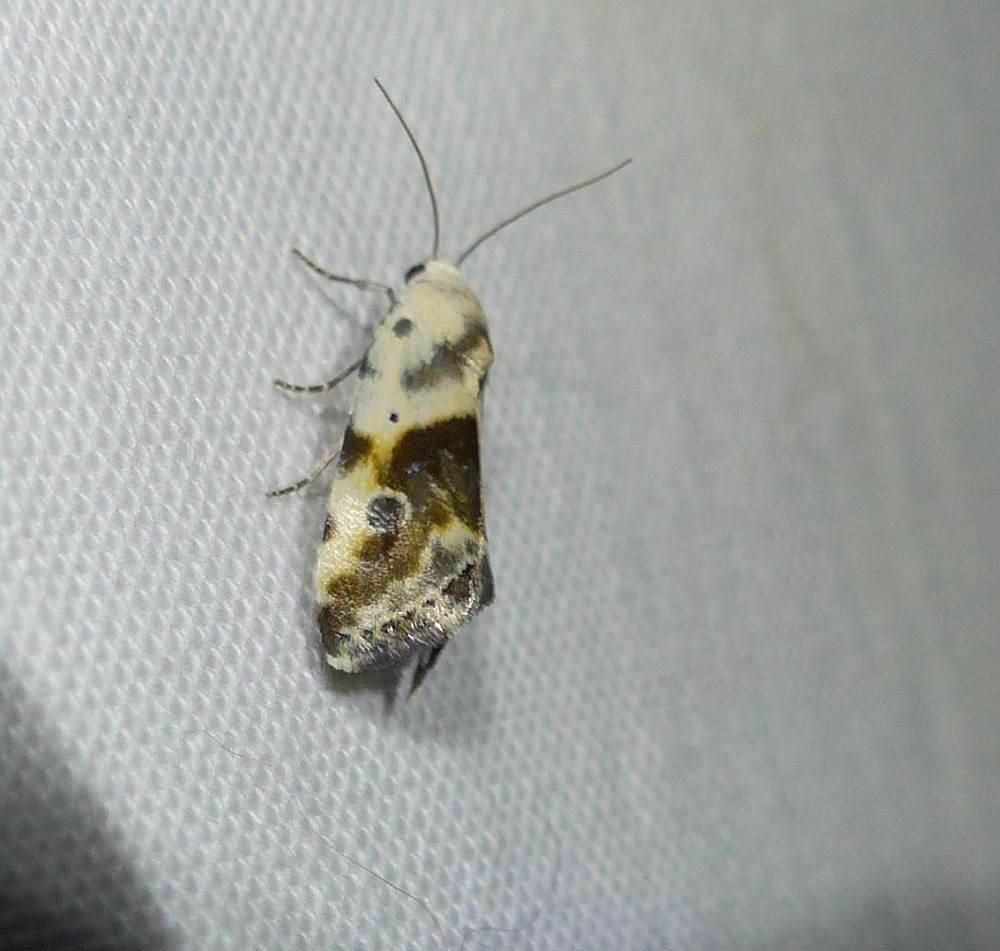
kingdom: Animalia
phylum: Arthropoda
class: Insecta
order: Lepidoptera
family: Noctuidae
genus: Acontia
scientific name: Acontia candefacta
